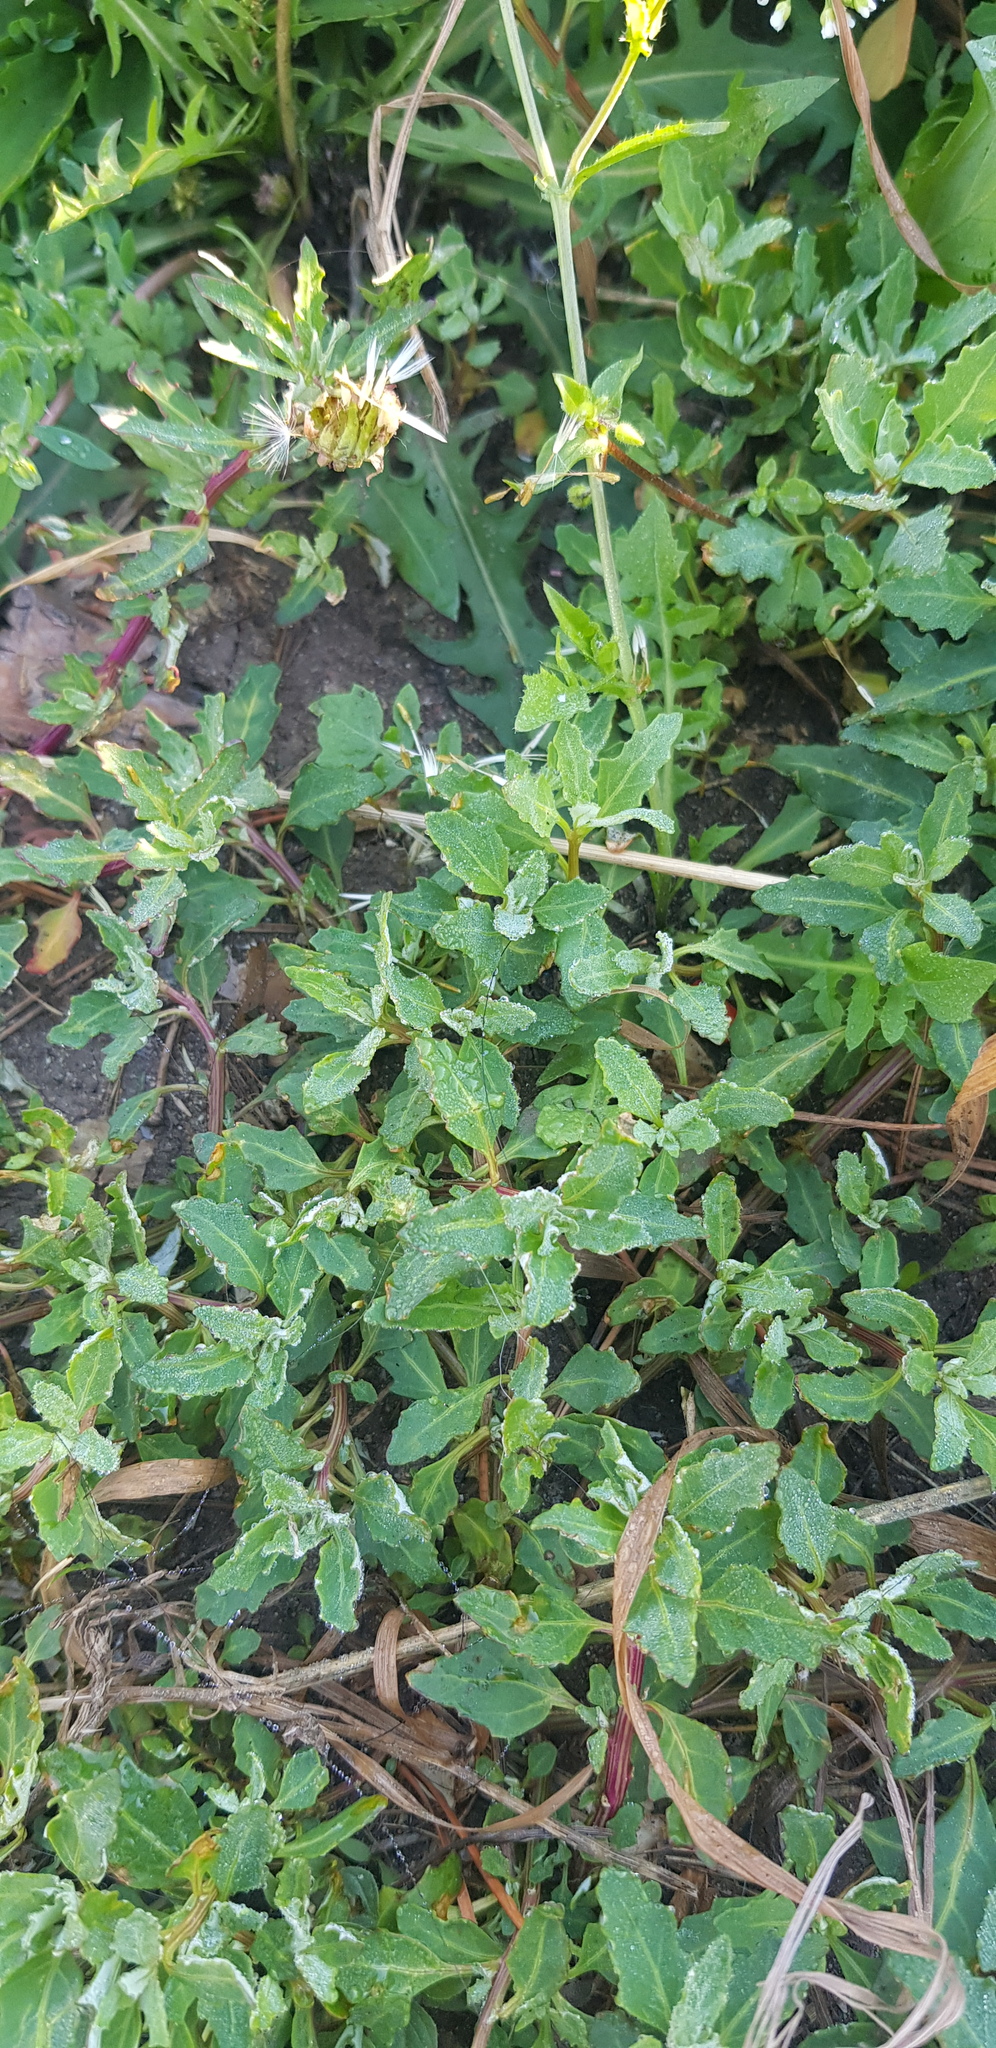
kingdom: Plantae
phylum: Tracheophyta
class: Magnoliopsida
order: Caryophyllales
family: Amaranthaceae
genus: Oxybasis
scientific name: Oxybasis glauca
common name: Glaucous goosefoot
